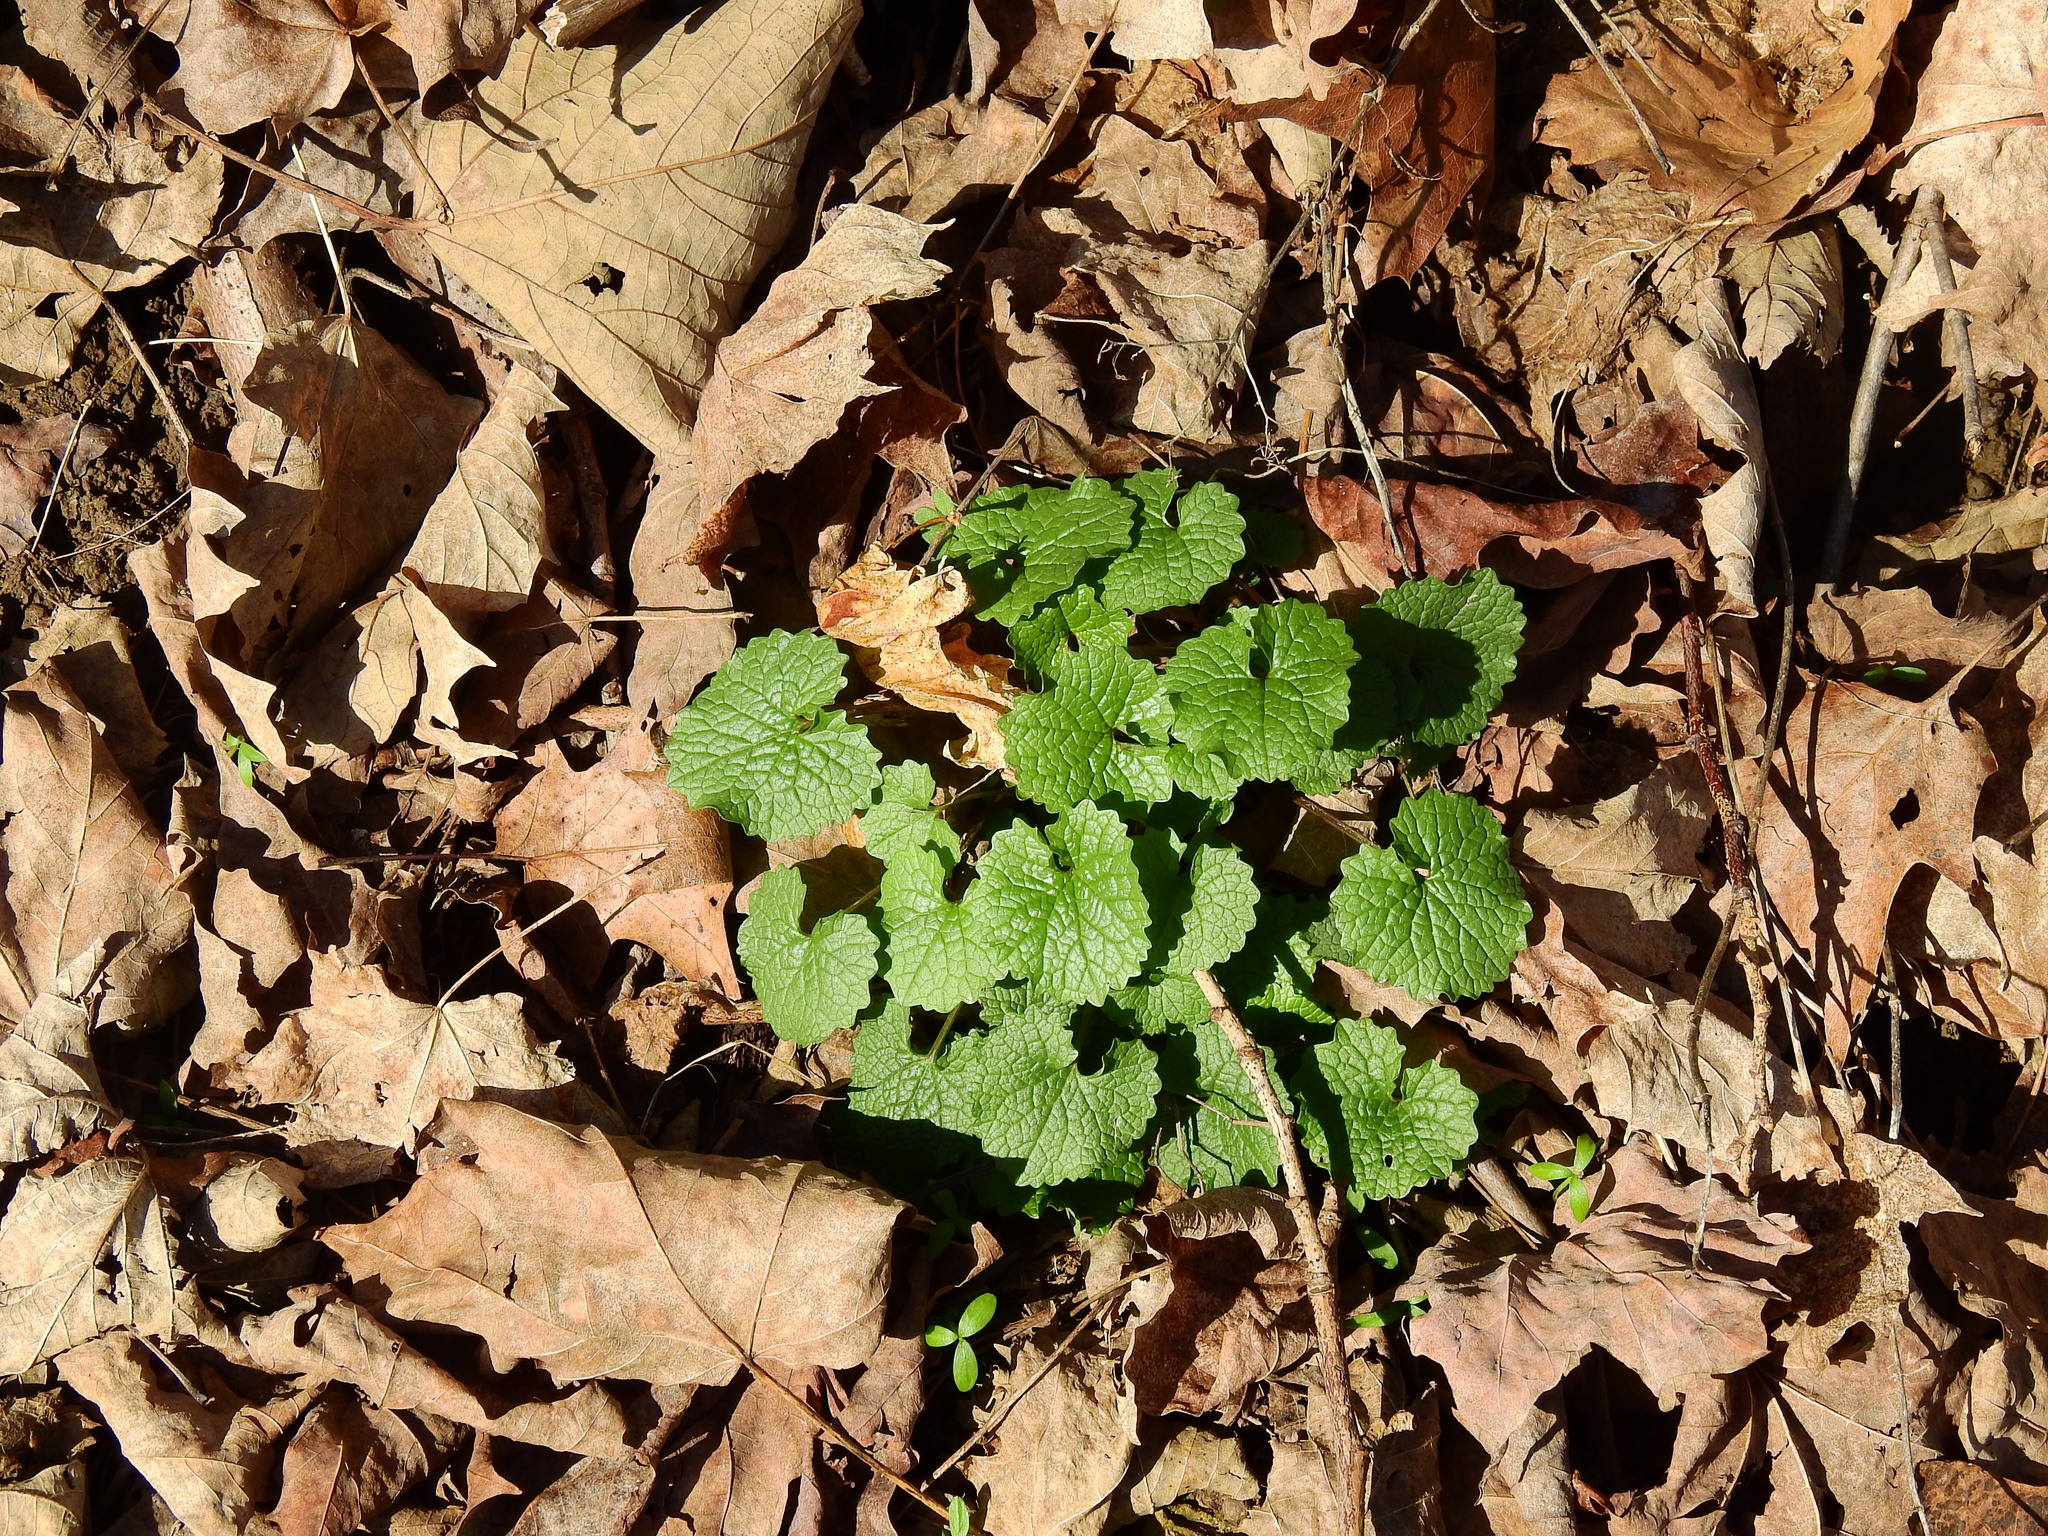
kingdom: Plantae
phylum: Tracheophyta
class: Magnoliopsida
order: Brassicales
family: Brassicaceae
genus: Alliaria
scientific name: Alliaria petiolata
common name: Garlic mustard
